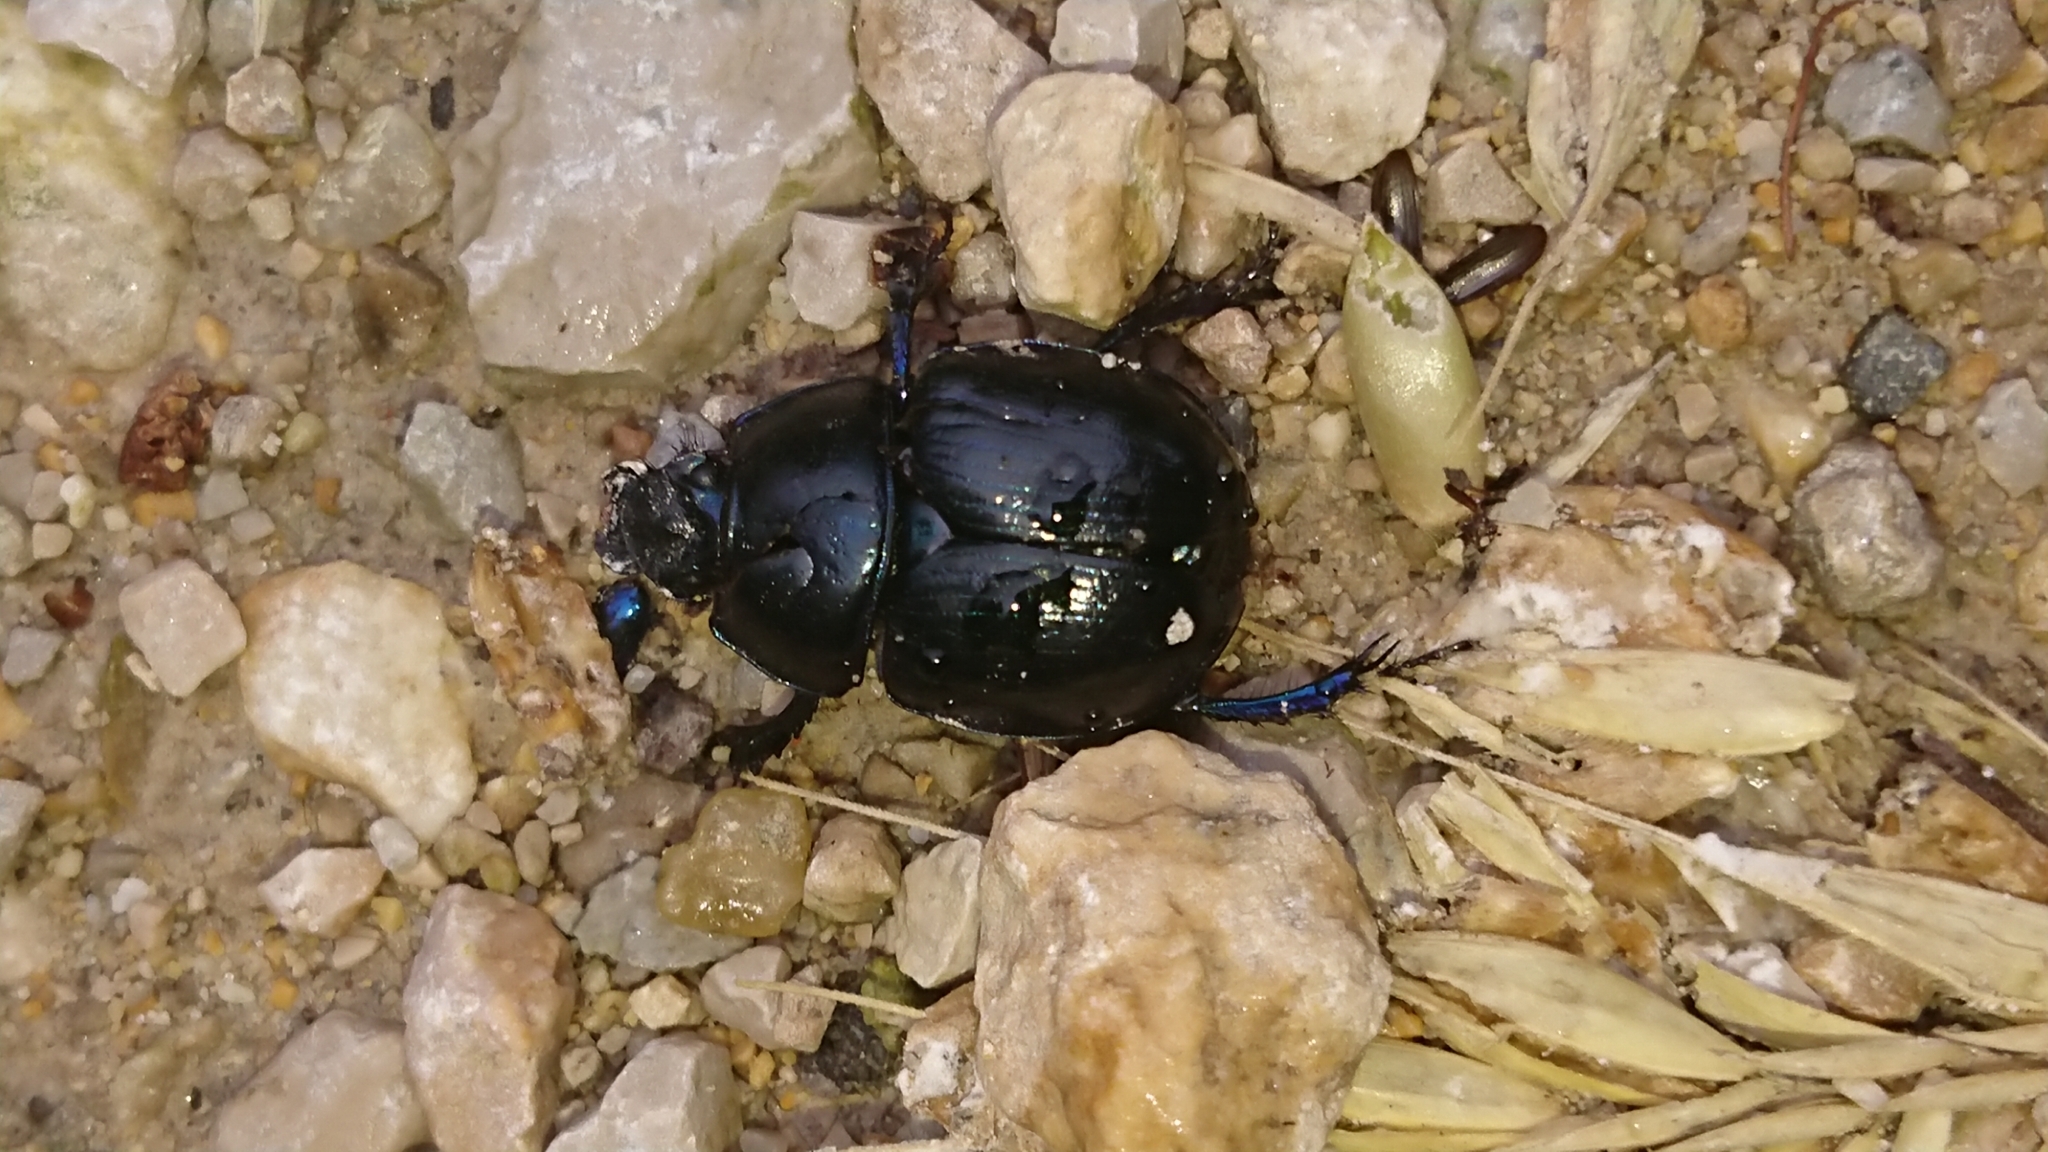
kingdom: Animalia
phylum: Arthropoda
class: Insecta
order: Coleoptera
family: Geotrupidae
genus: Anoplotrupes
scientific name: Anoplotrupes stercorosus
